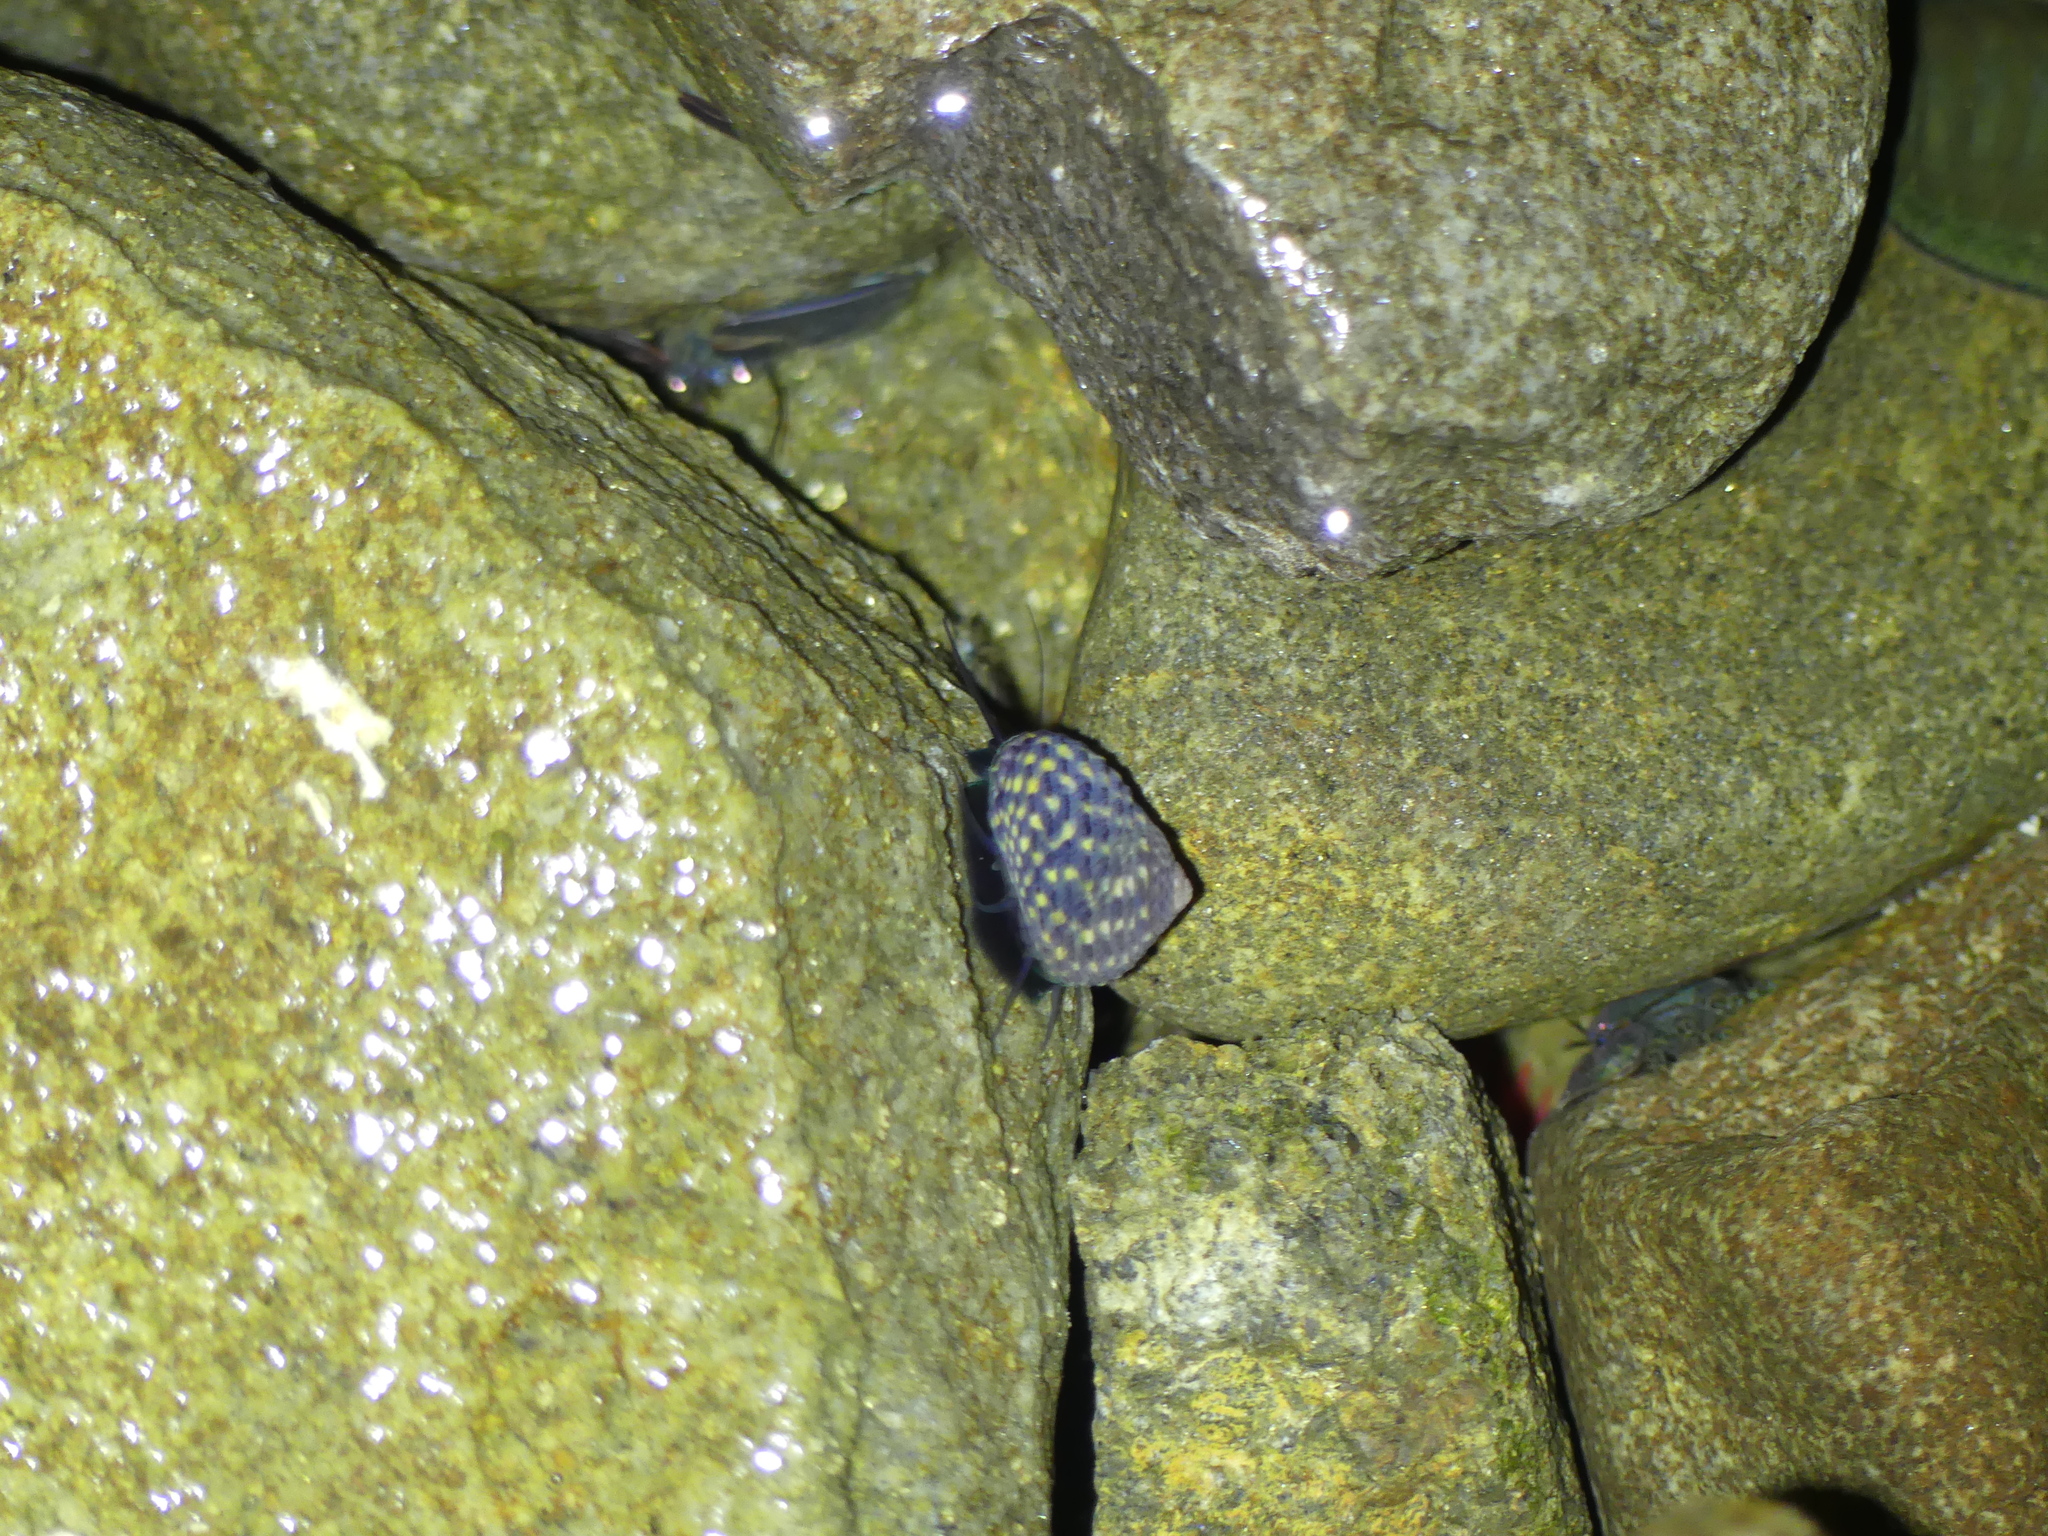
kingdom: Animalia
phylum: Mollusca
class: Gastropoda
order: Trochida
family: Trochidae
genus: Diloma
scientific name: Diloma concameratum
